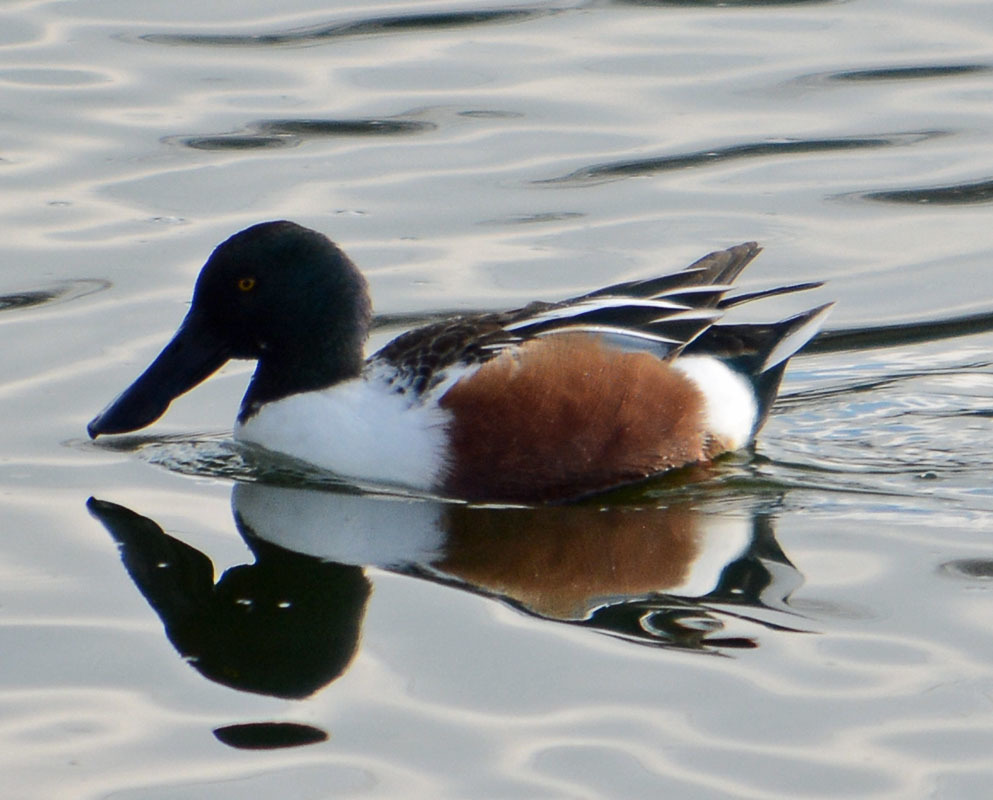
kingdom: Animalia
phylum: Chordata
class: Aves
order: Anseriformes
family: Anatidae
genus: Spatula
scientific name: Spatula clypeata
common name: Northern shoveler
